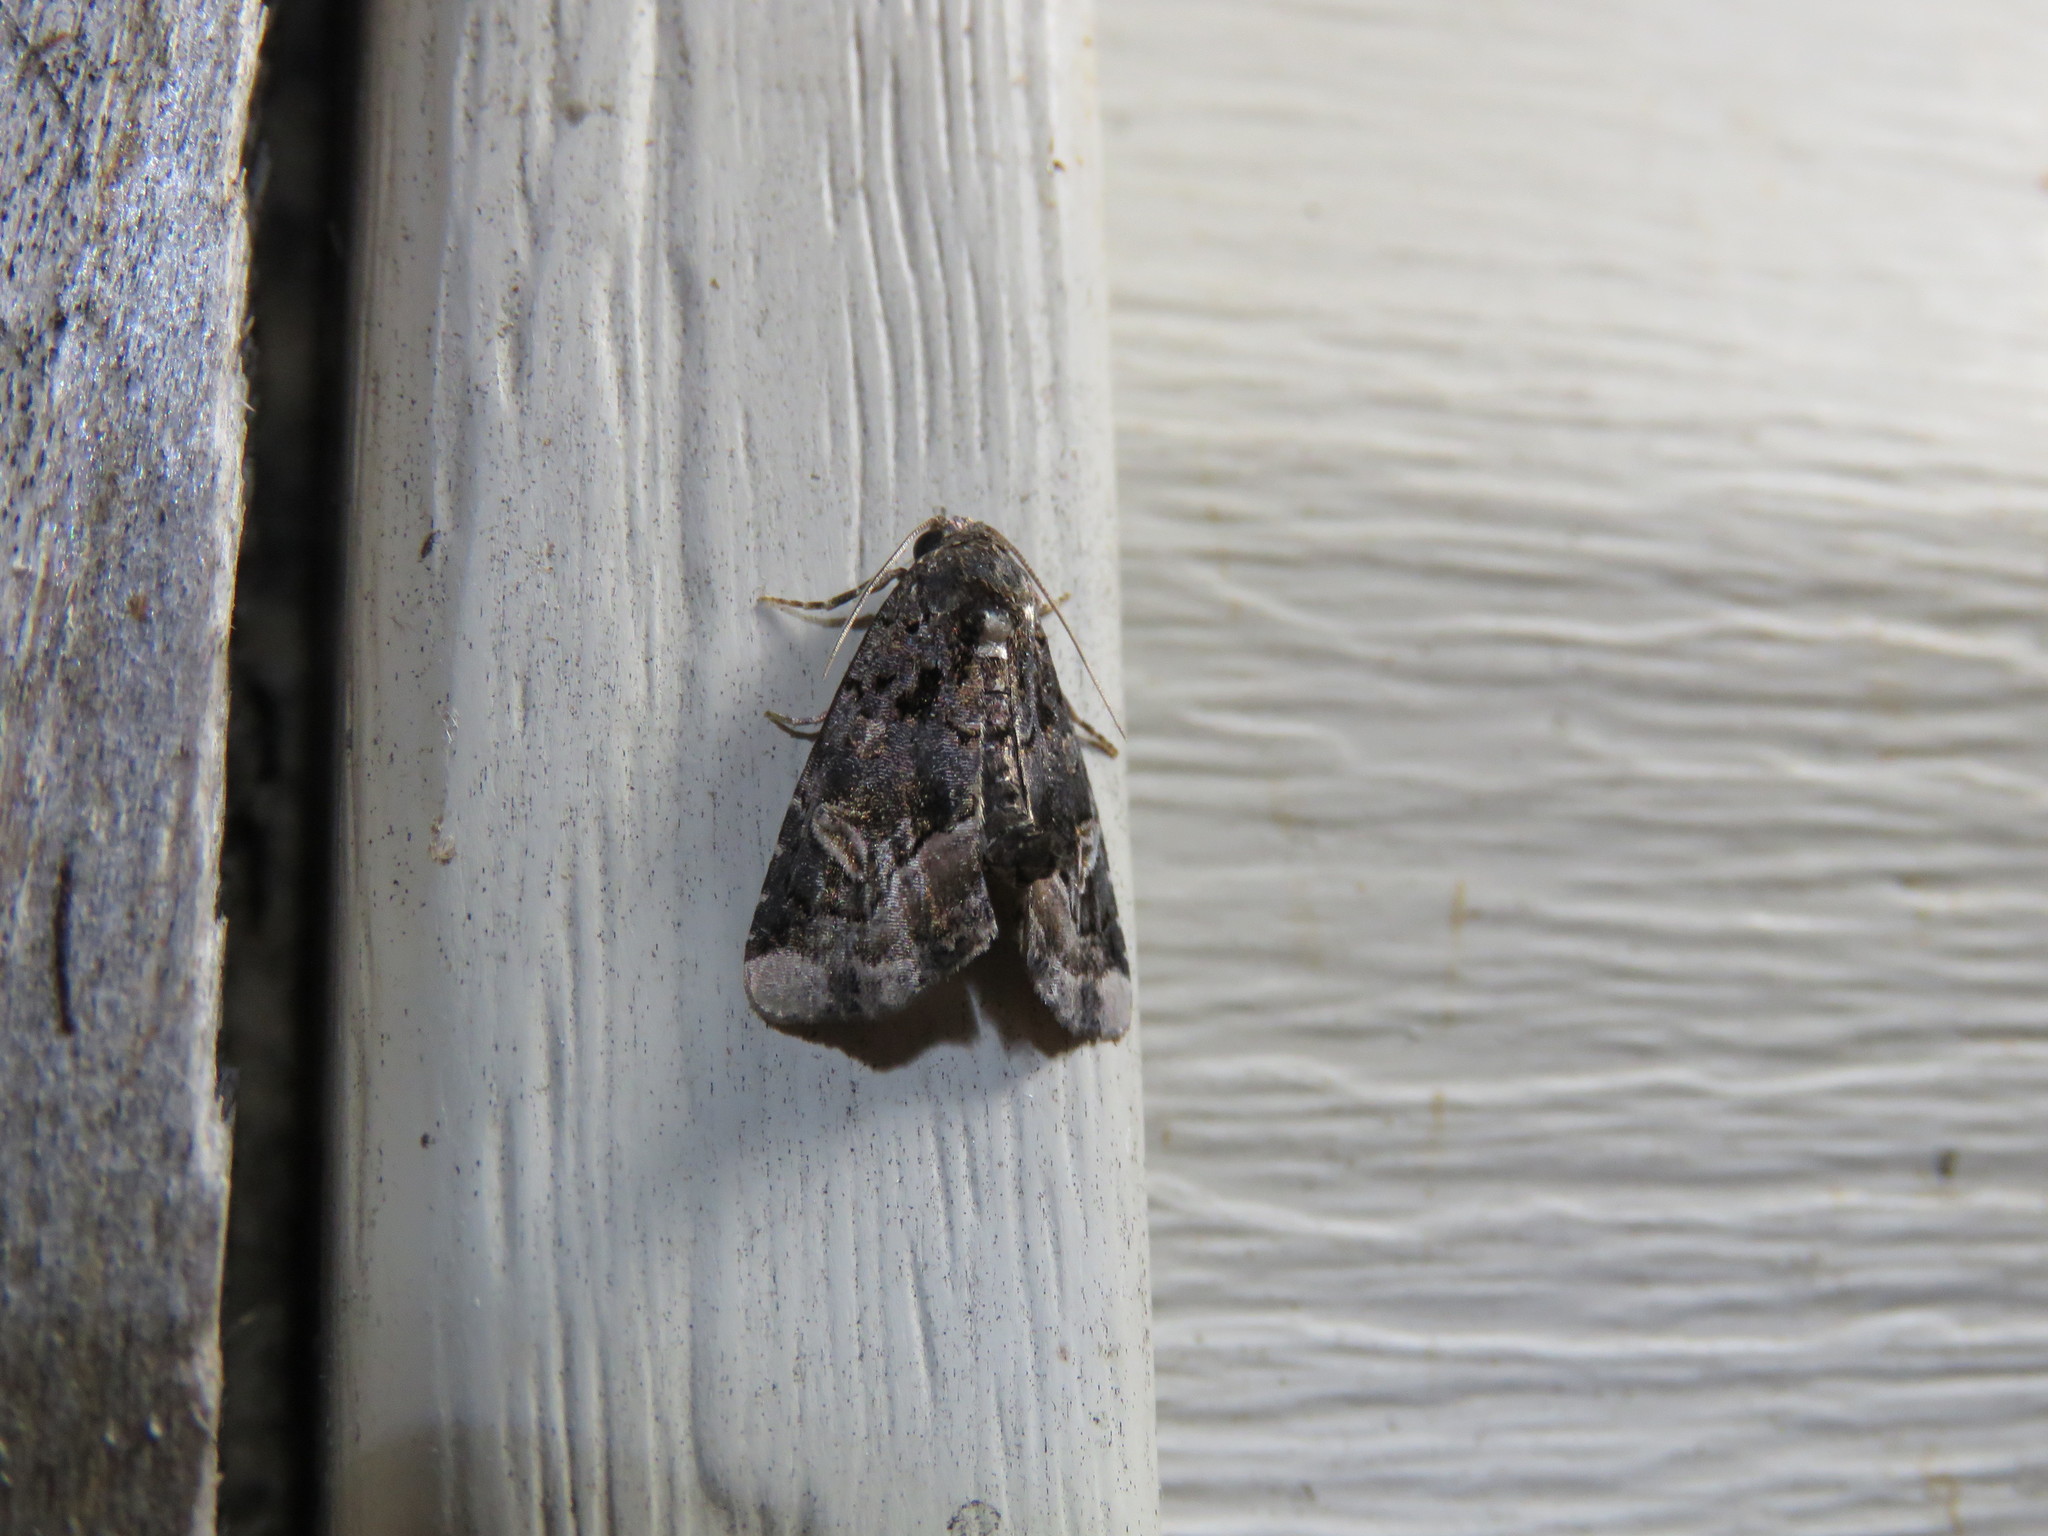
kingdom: Animalia
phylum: Arthropoda
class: Insecta
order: Lepidoptera
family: Noctuidae
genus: Homophoberia
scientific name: Homophoberia apicosa
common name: Black wedge-spot
